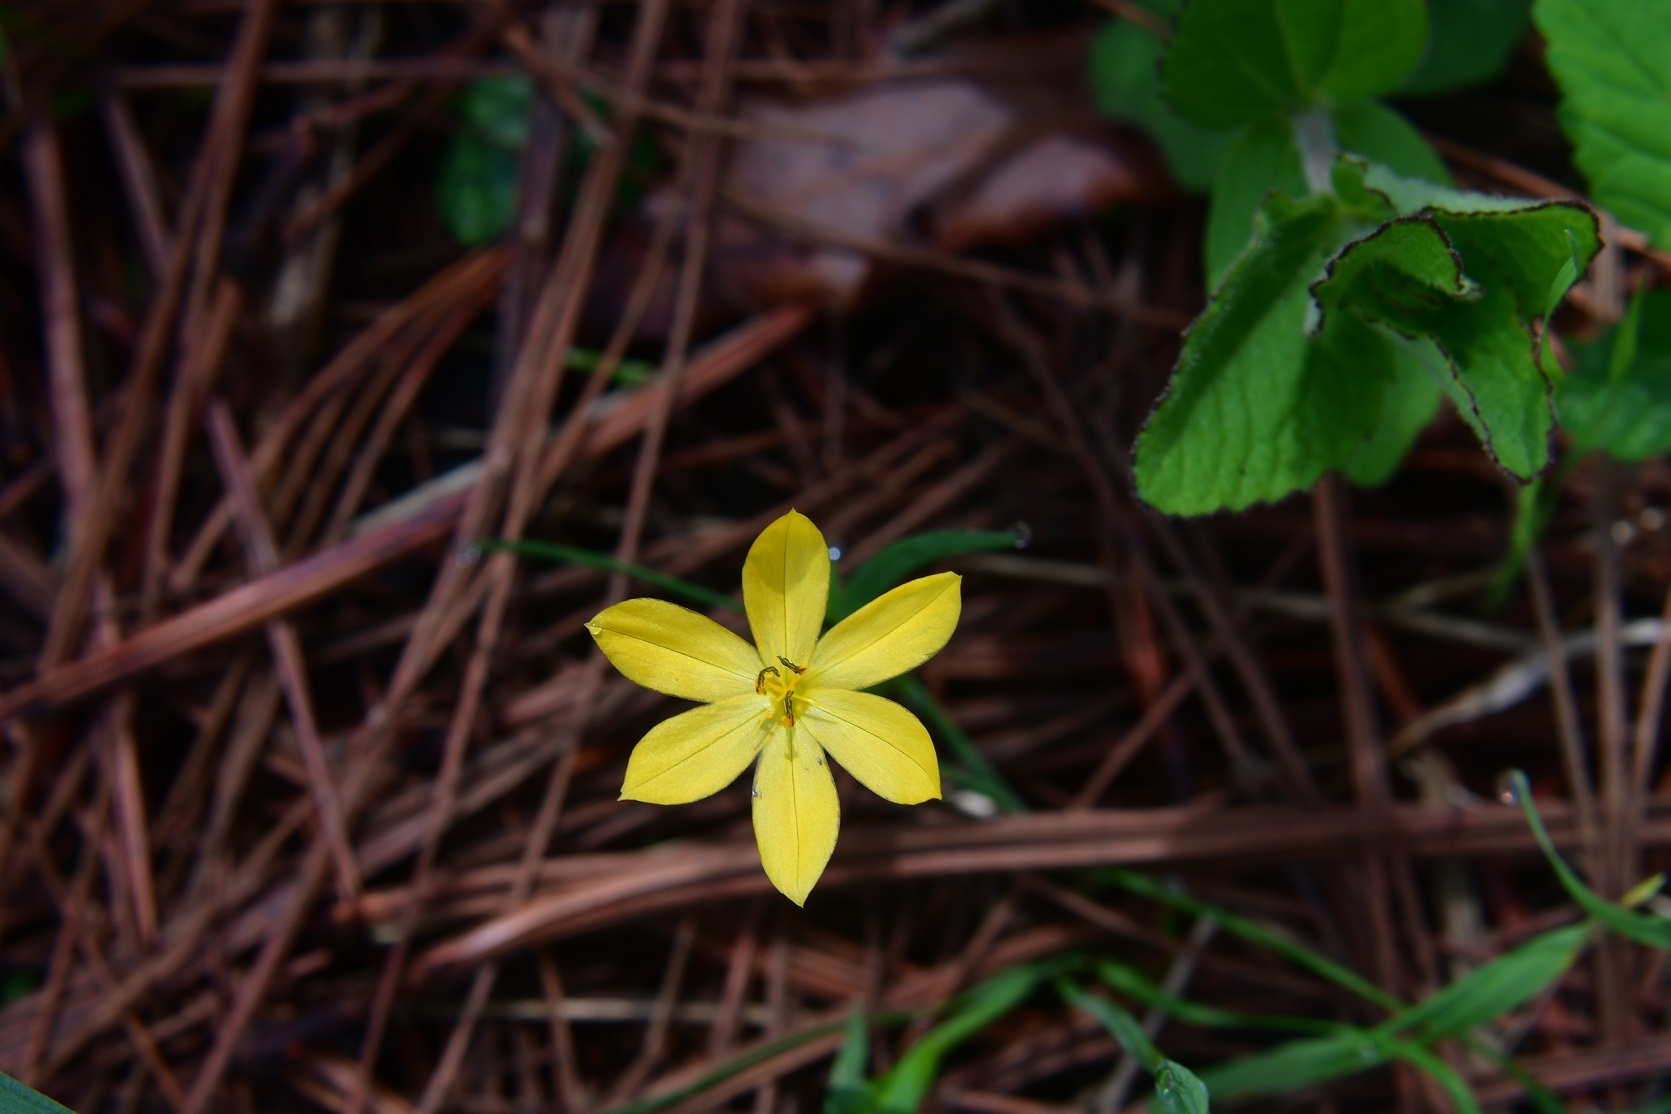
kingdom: Plantae
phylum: Tracheophyta
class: Liliopsida
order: Asparagales
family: Iridaceae
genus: Sisyrinchium
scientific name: Sisyrinchium tenuifolium
